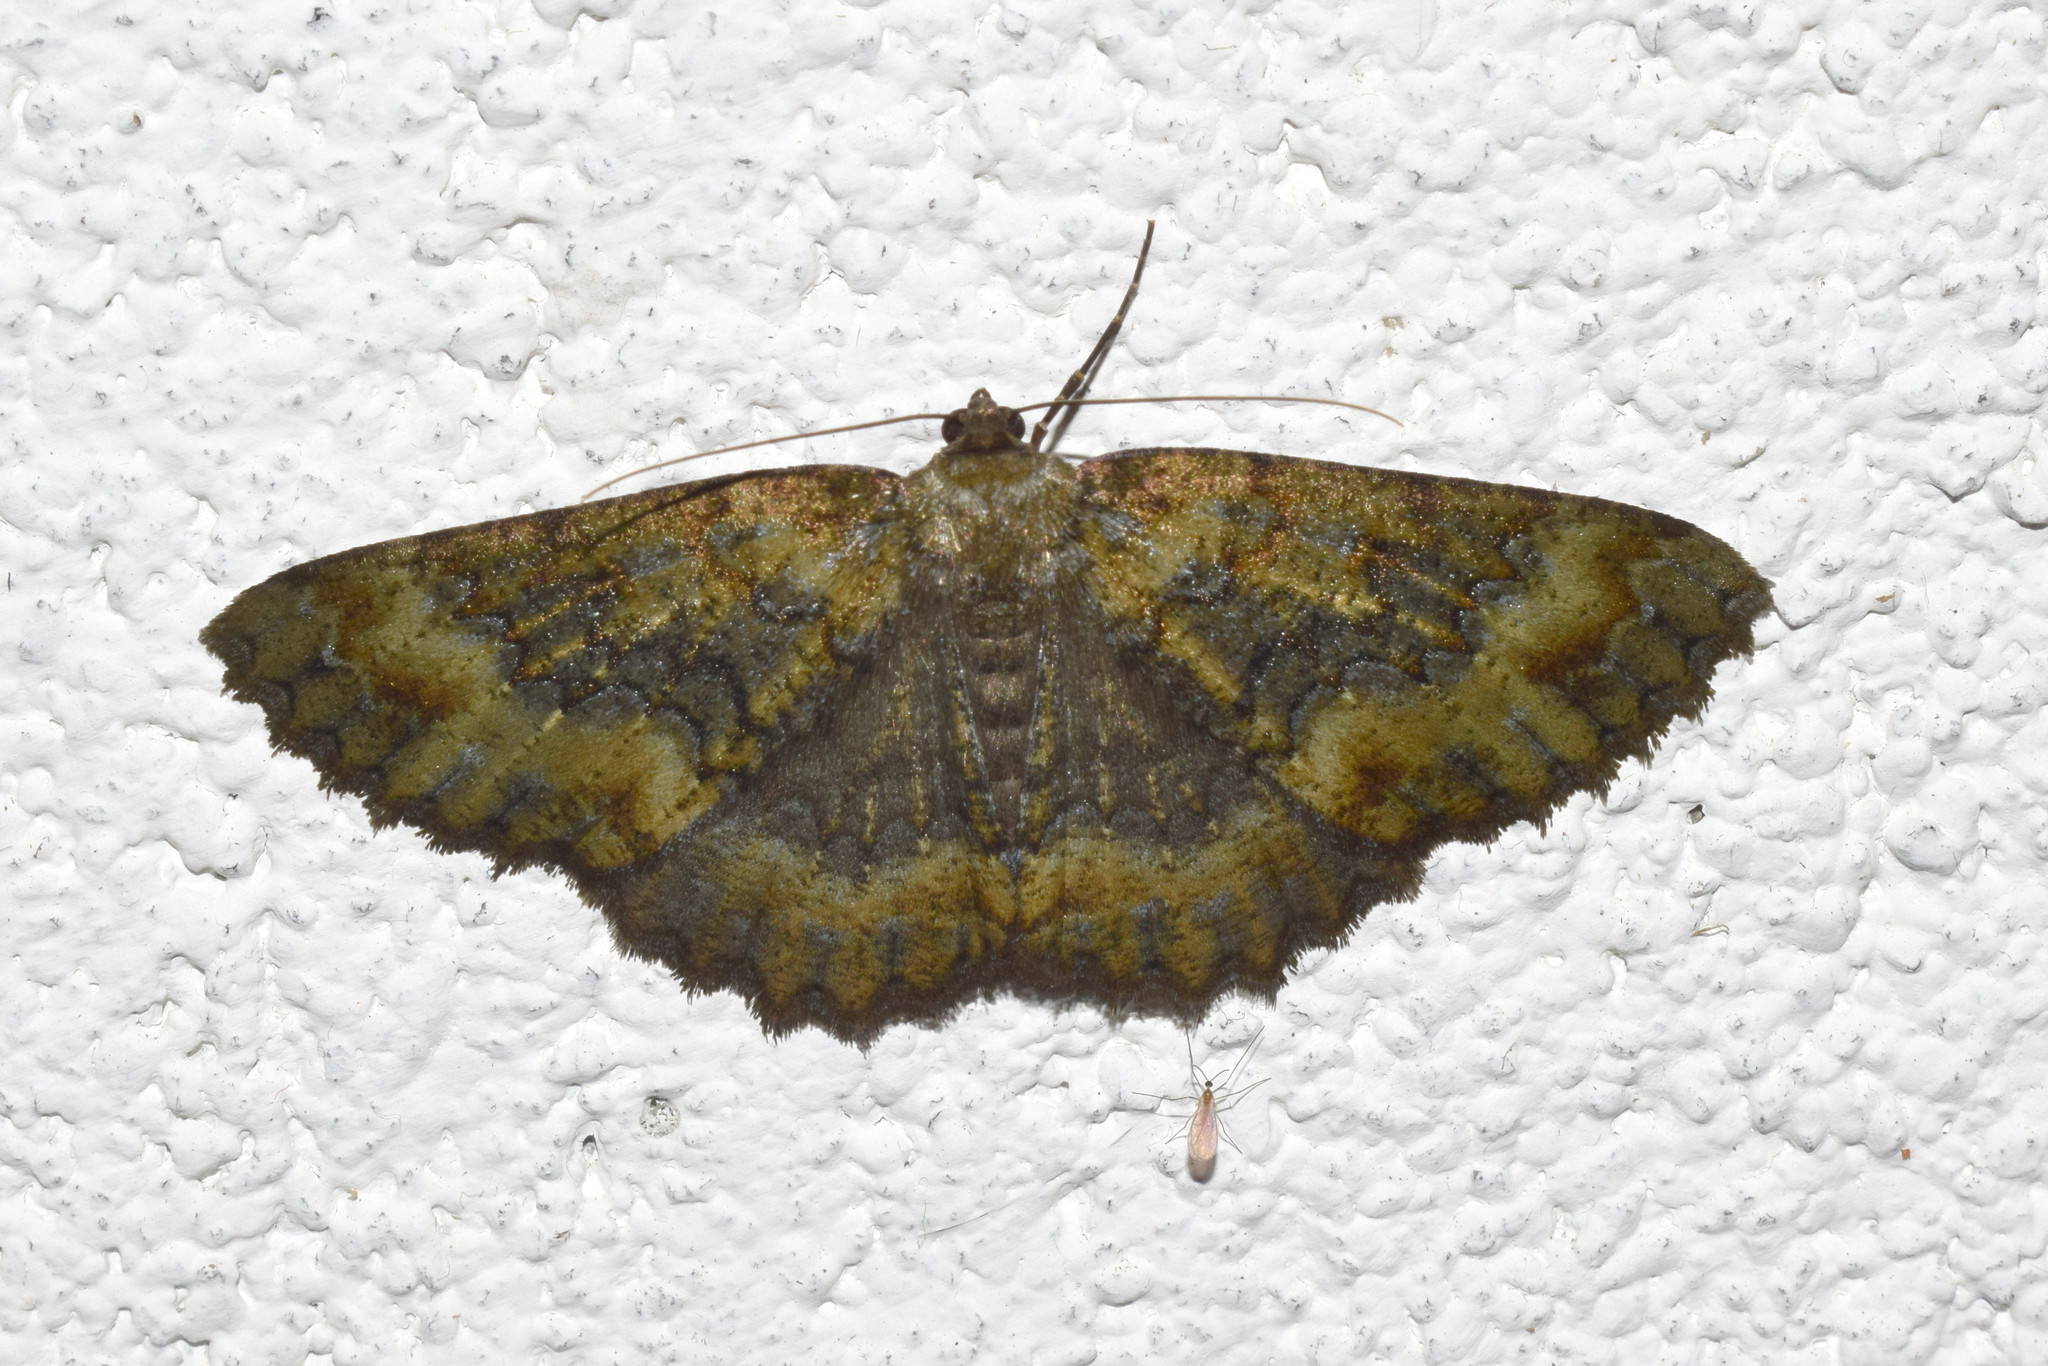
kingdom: Animalia
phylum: Arthropoda
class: Insecta
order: Lepidoptera
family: Geometridae
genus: Hirasa
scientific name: Hirasa muscosaria
